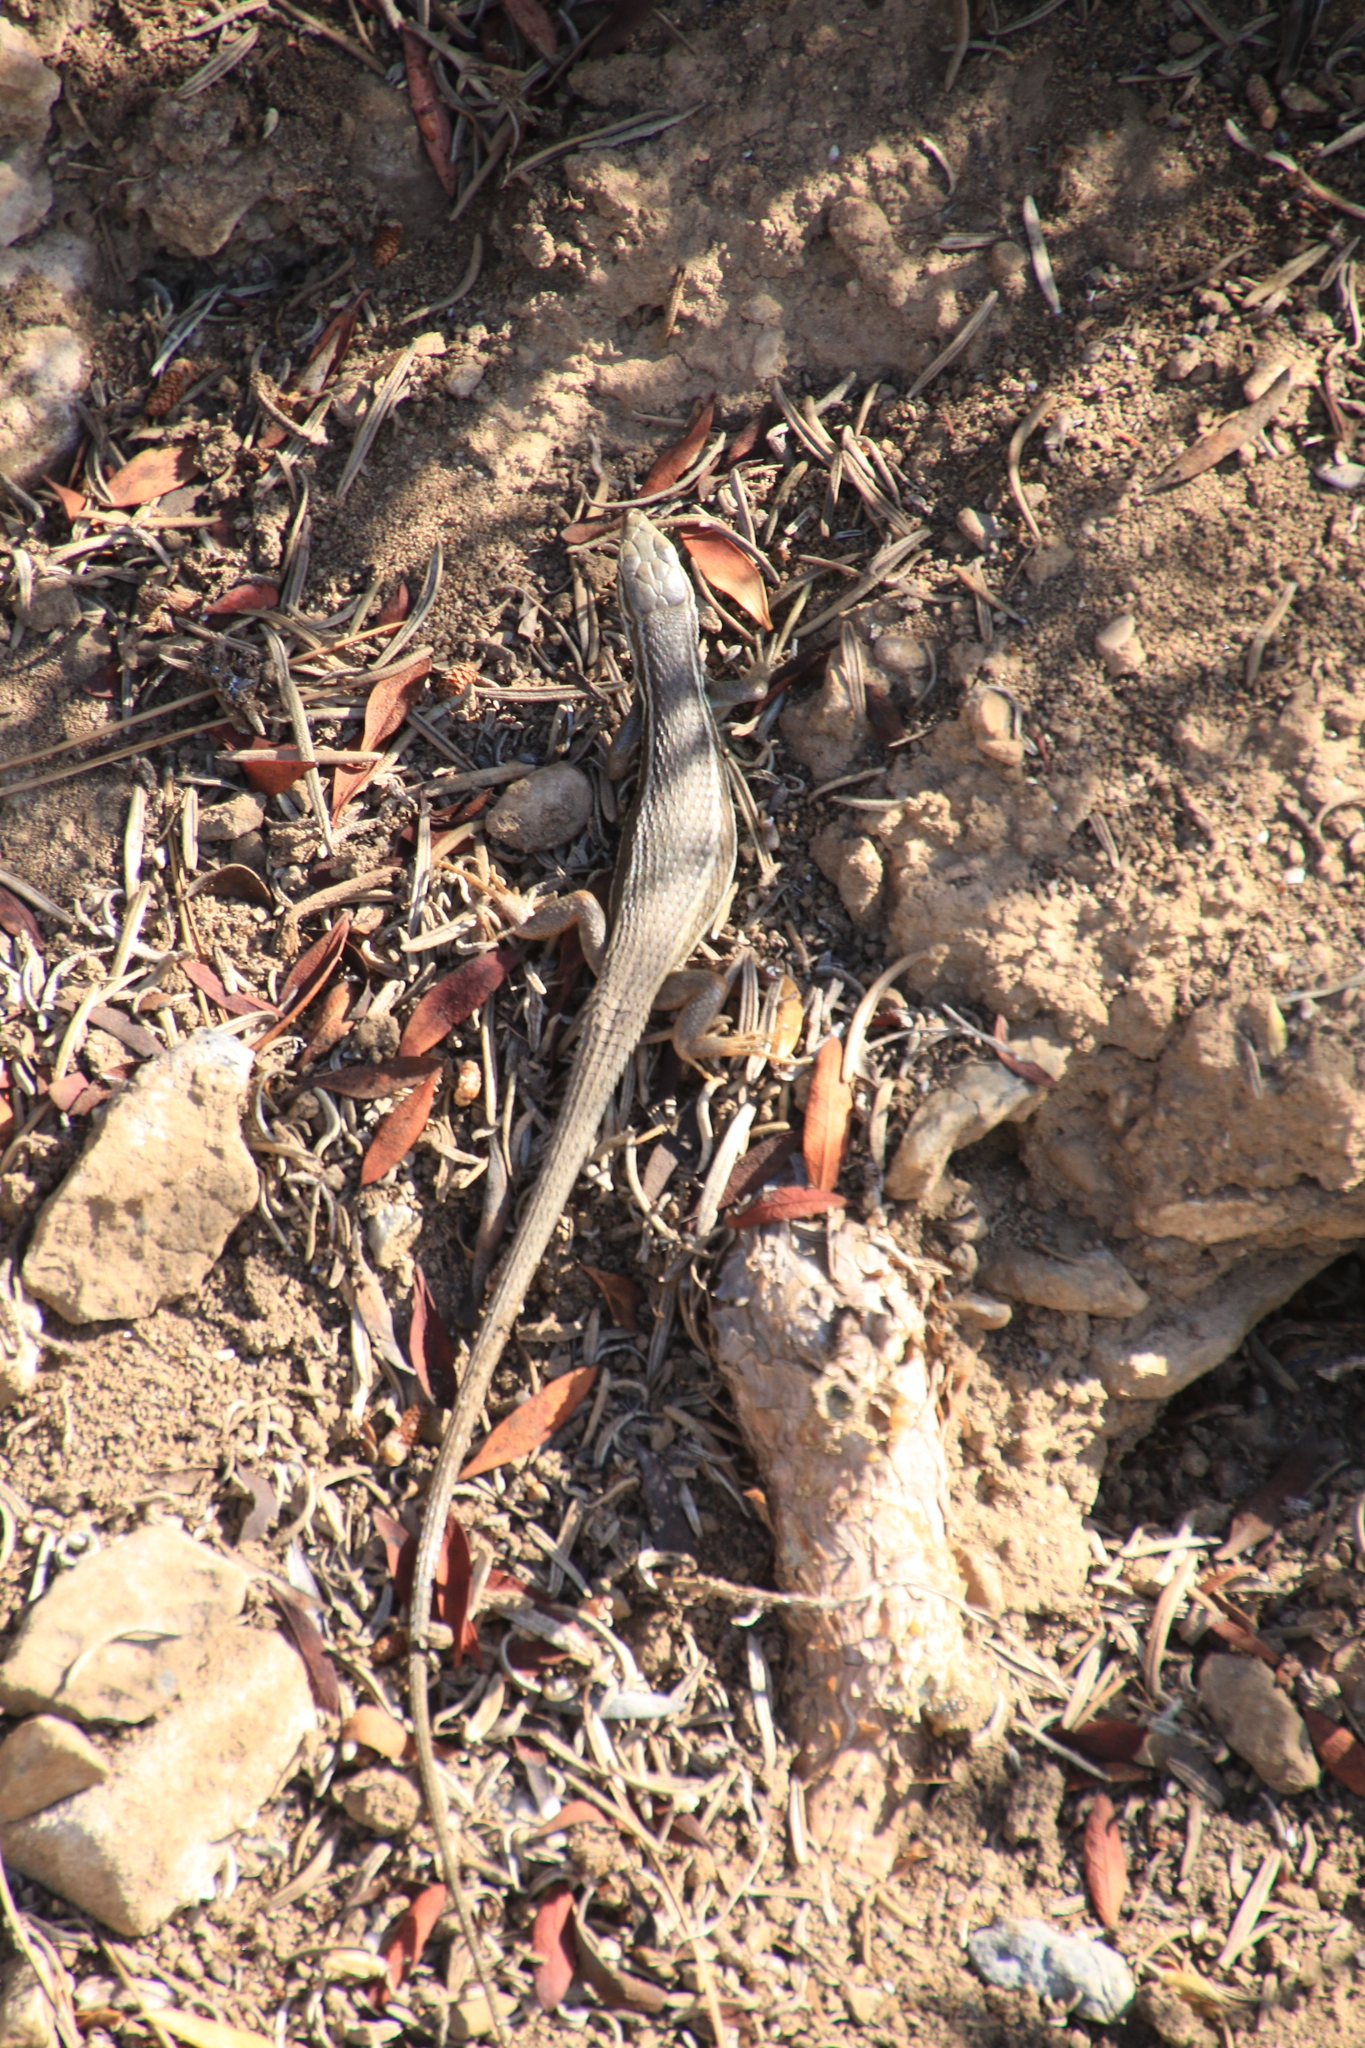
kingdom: Animalia
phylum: Chordata
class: Squamata
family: Lacertidae
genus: Psammodromus
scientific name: Psammodromus algirus
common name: Algerian psammodromus
